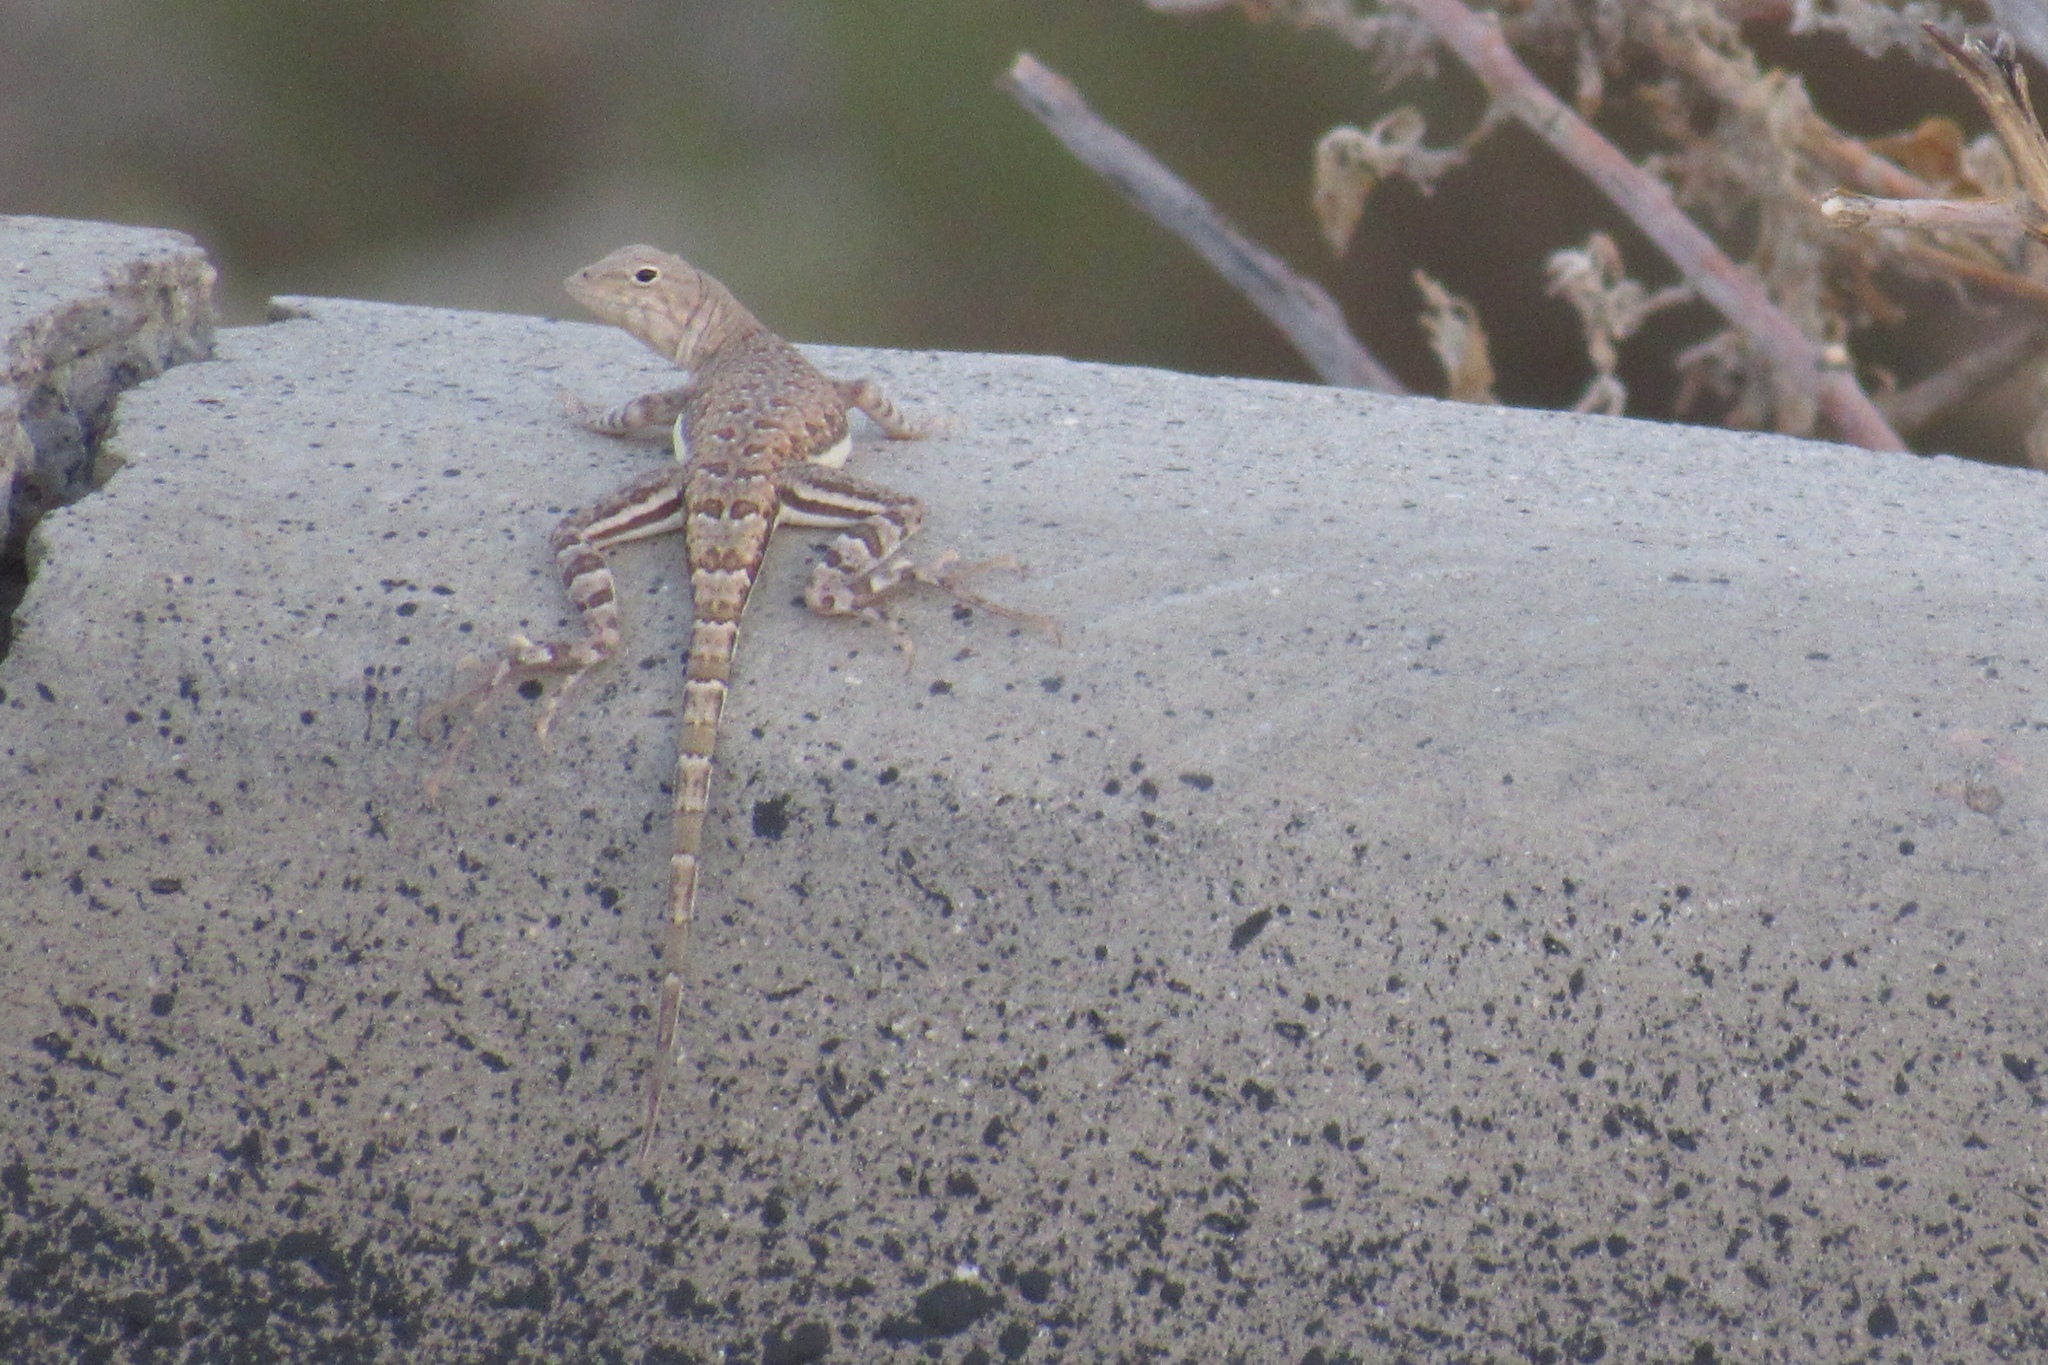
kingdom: Animalia
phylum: Chordata
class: Squamata
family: Phrynosomatidae
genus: Callisaurus
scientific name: Callisaurus draconoides
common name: Zebra-tailed lizard
